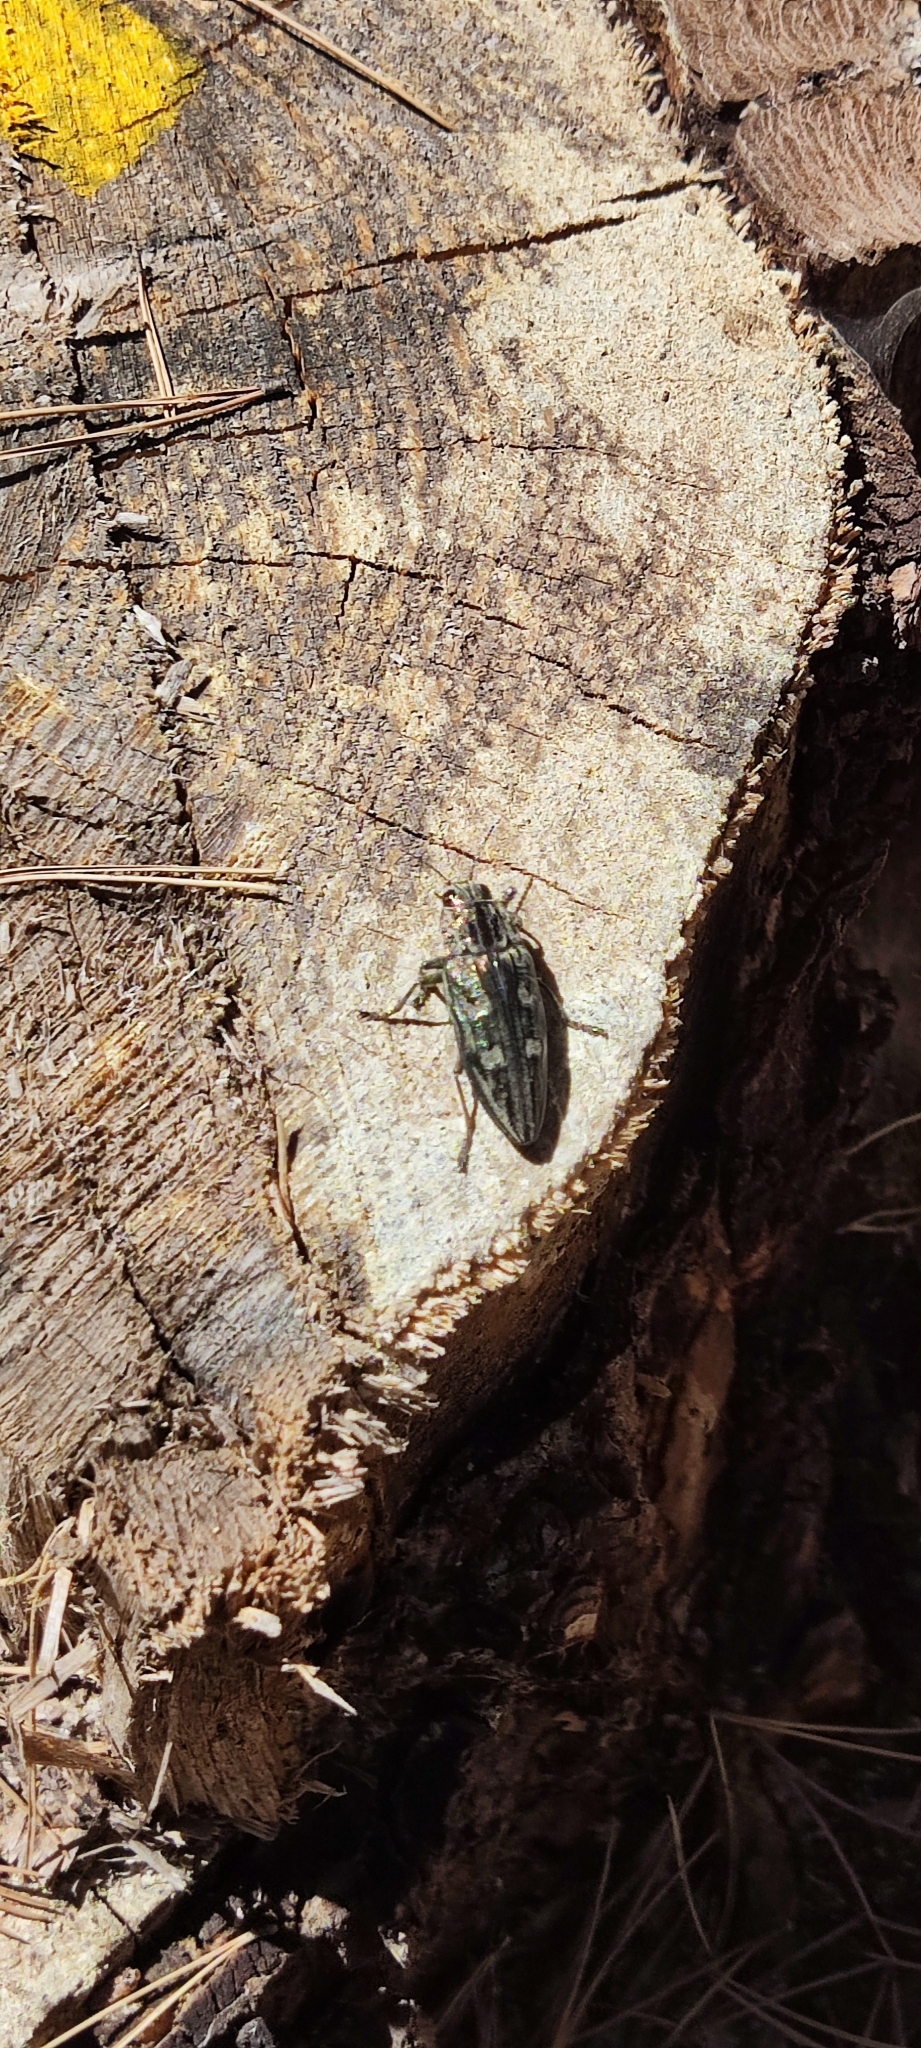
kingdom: Animalia
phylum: Arthropoda
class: Insecta
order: Coleoptera
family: Buprestidae
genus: Chalcophora
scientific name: Chalcophora massiliensis
